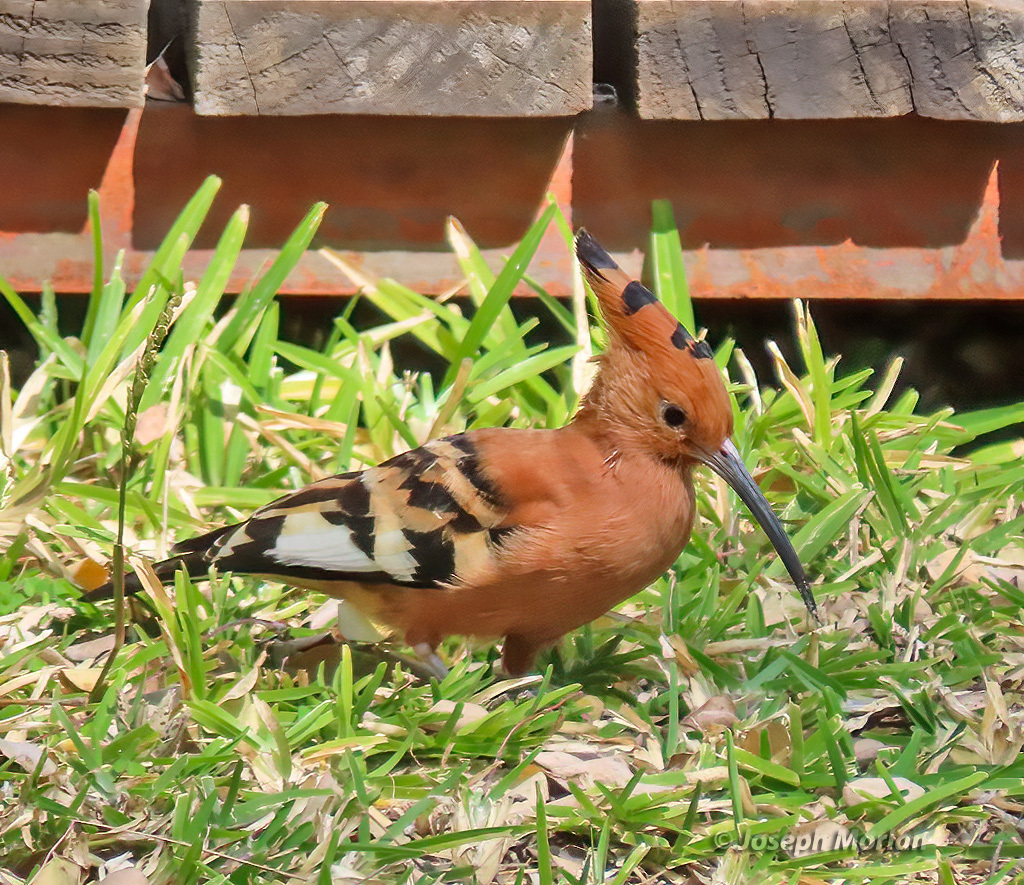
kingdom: Animalia
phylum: Chordata
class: Aves
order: Bucerotiformes
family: Upupidae
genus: Upupa
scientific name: Upupa africana
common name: African hoopoe
